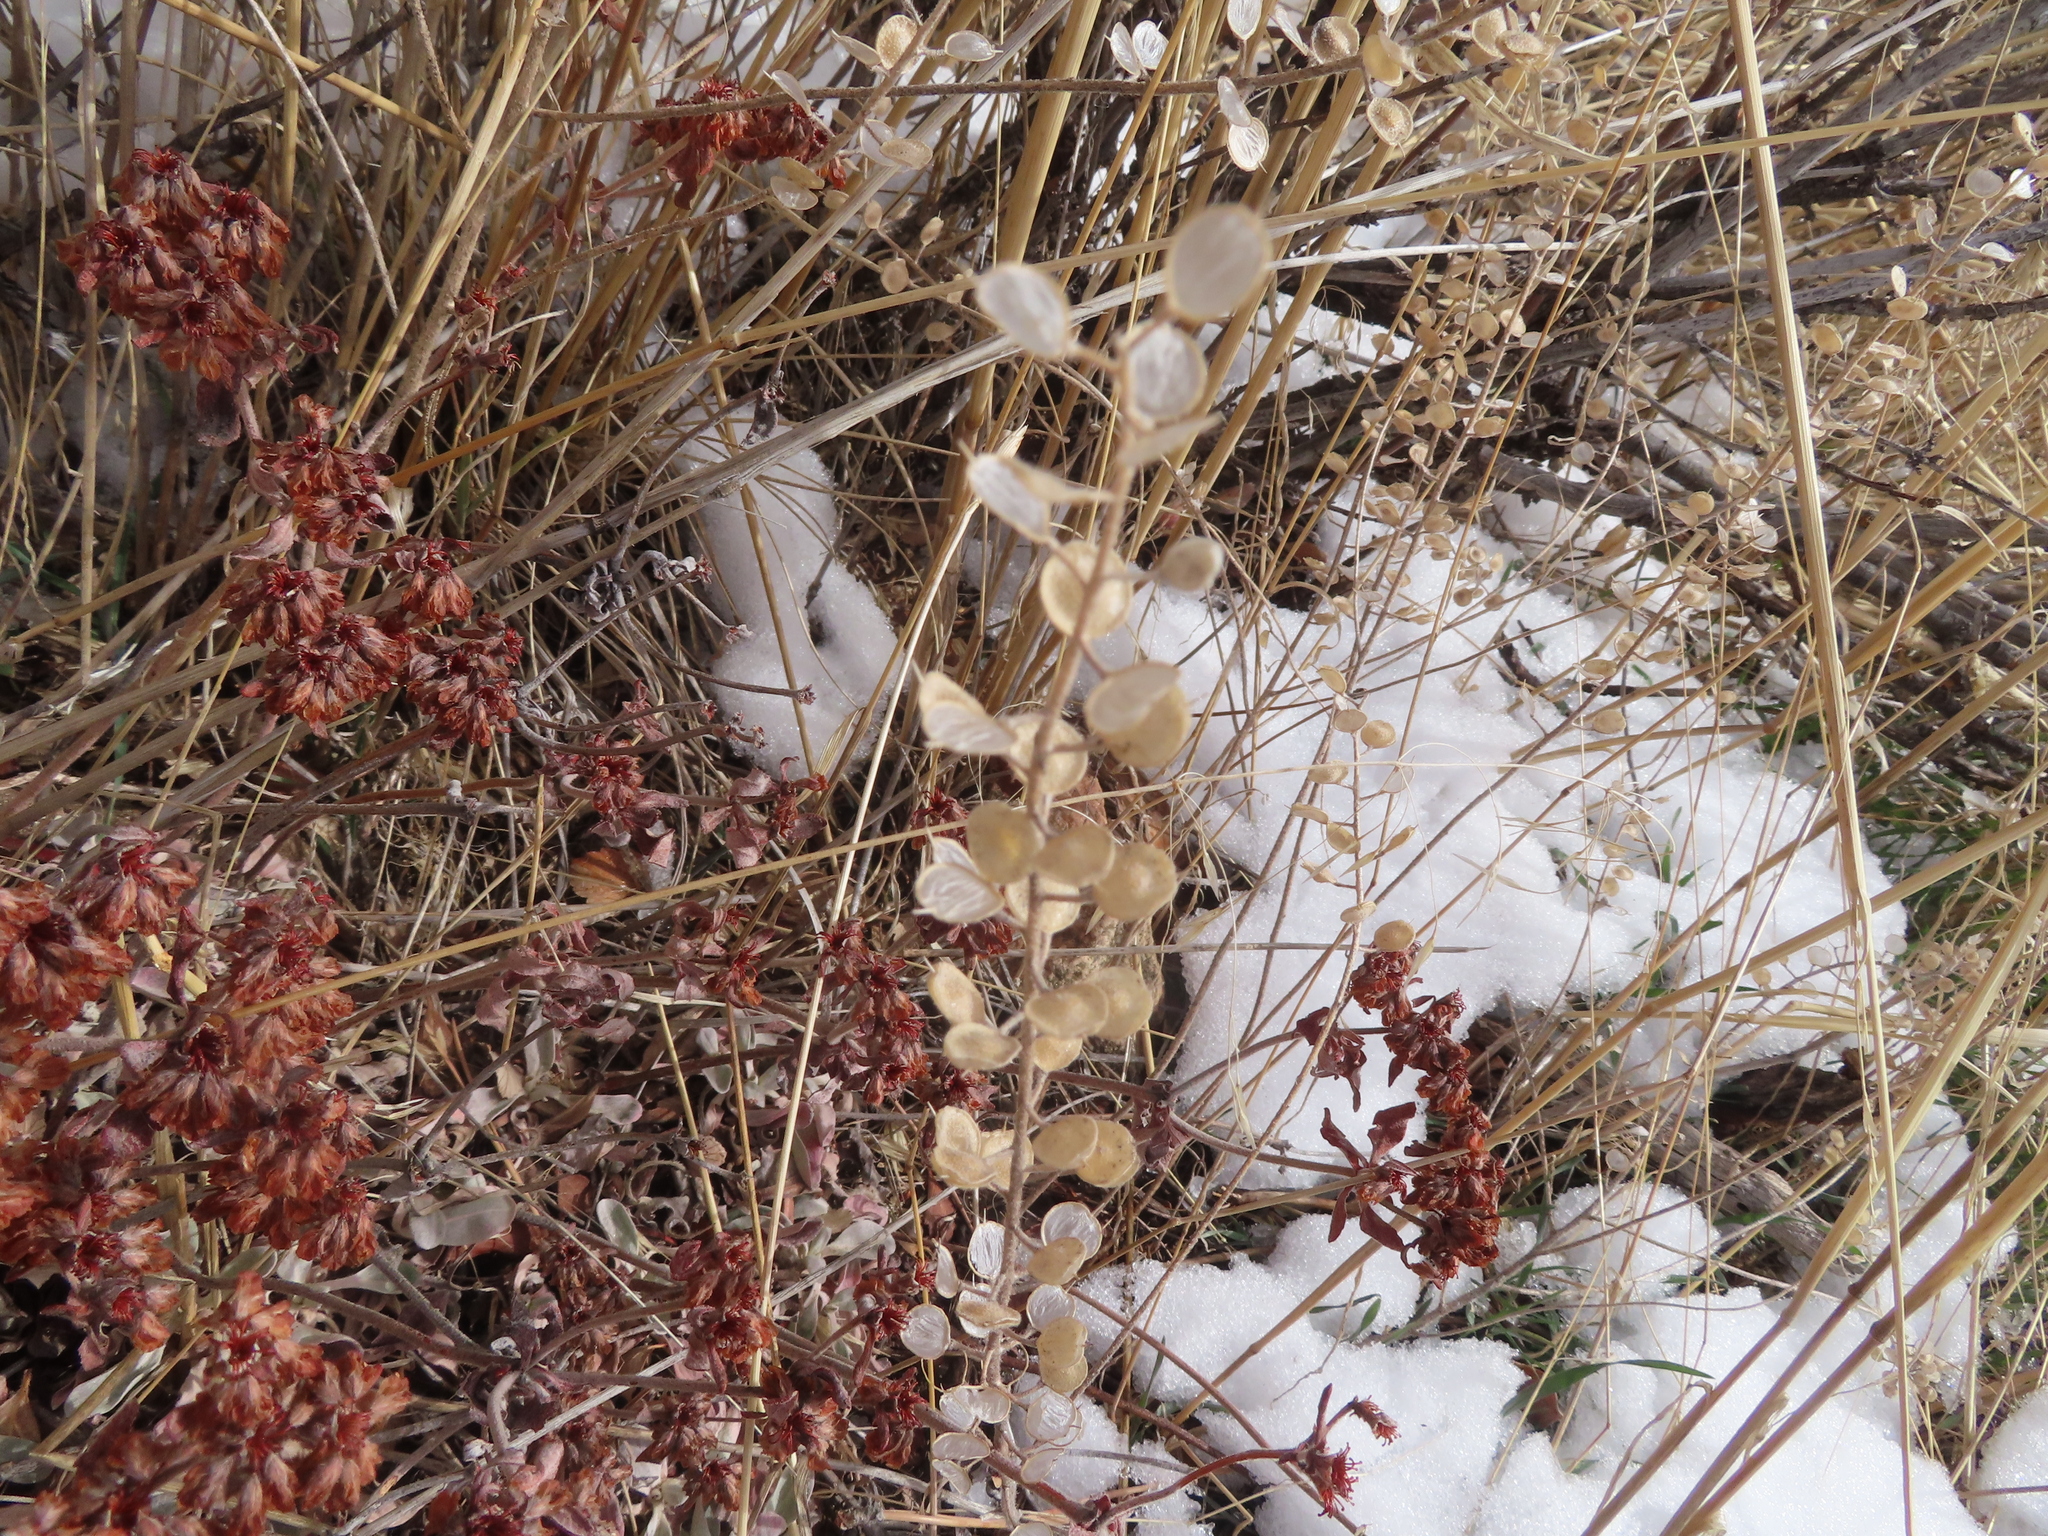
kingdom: Plantae
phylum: Tracheophyta
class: Magnoliopsida
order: Brassicales
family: Brassicaceae
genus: Alyssum
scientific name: Alyssum simplex
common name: Alyssum
